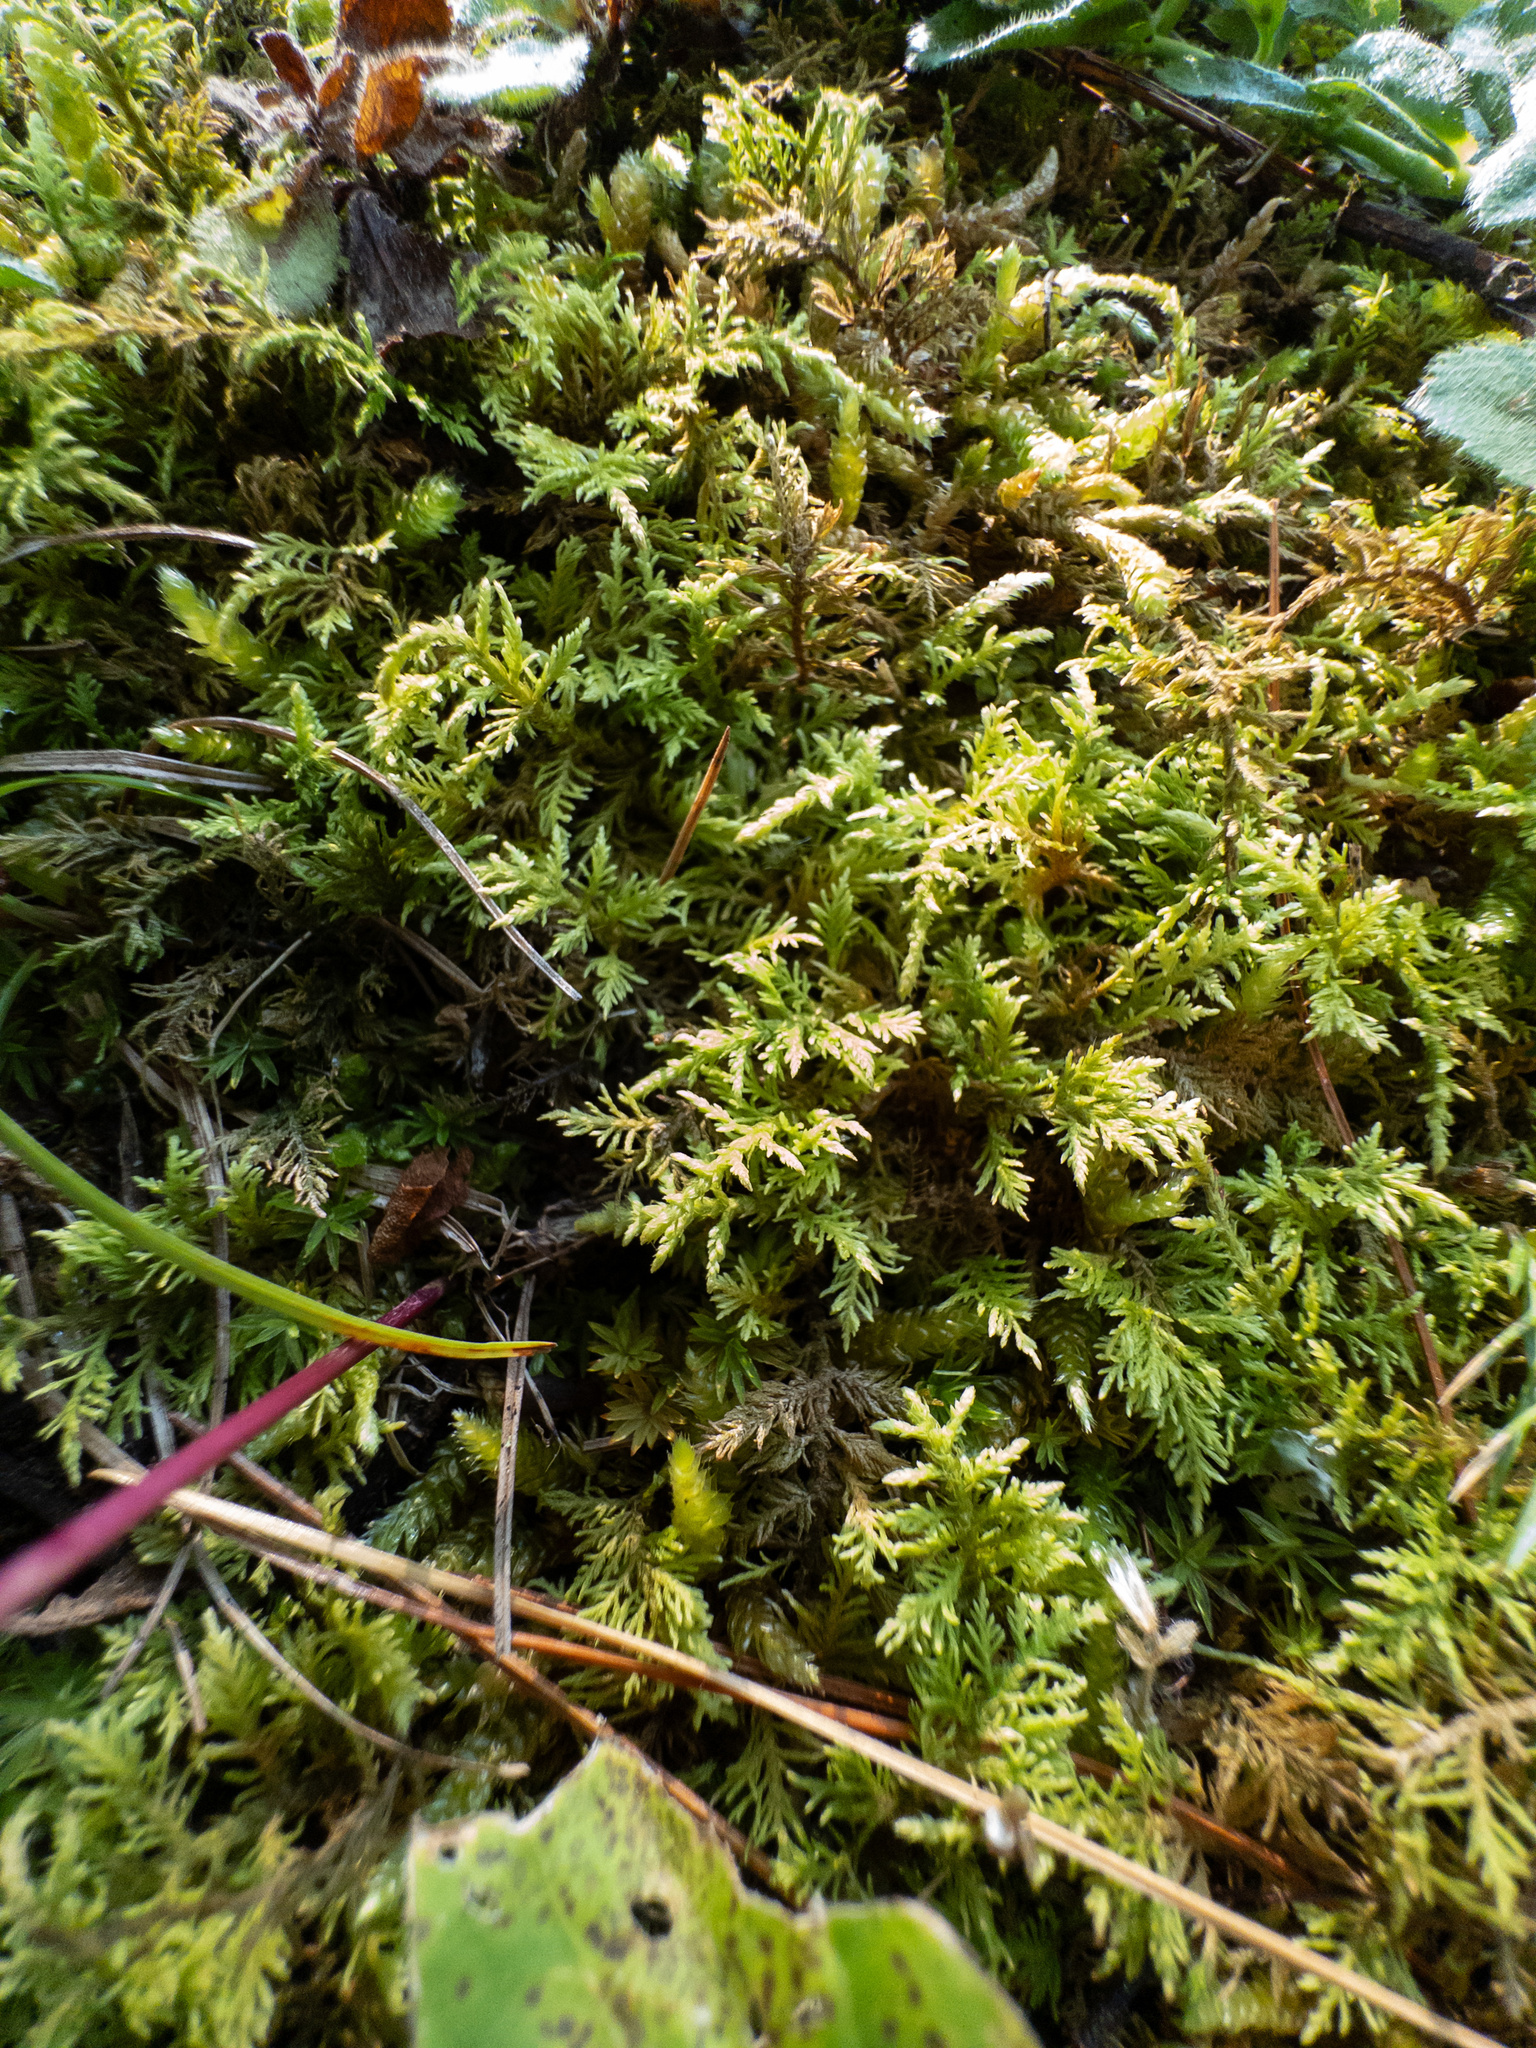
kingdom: Plantae
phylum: Bryophyta
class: Bryopsida
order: Hypnales
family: Thuidiaceae
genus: Thuidium
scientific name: Thuidium delicatulum
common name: Delicate fern moss
